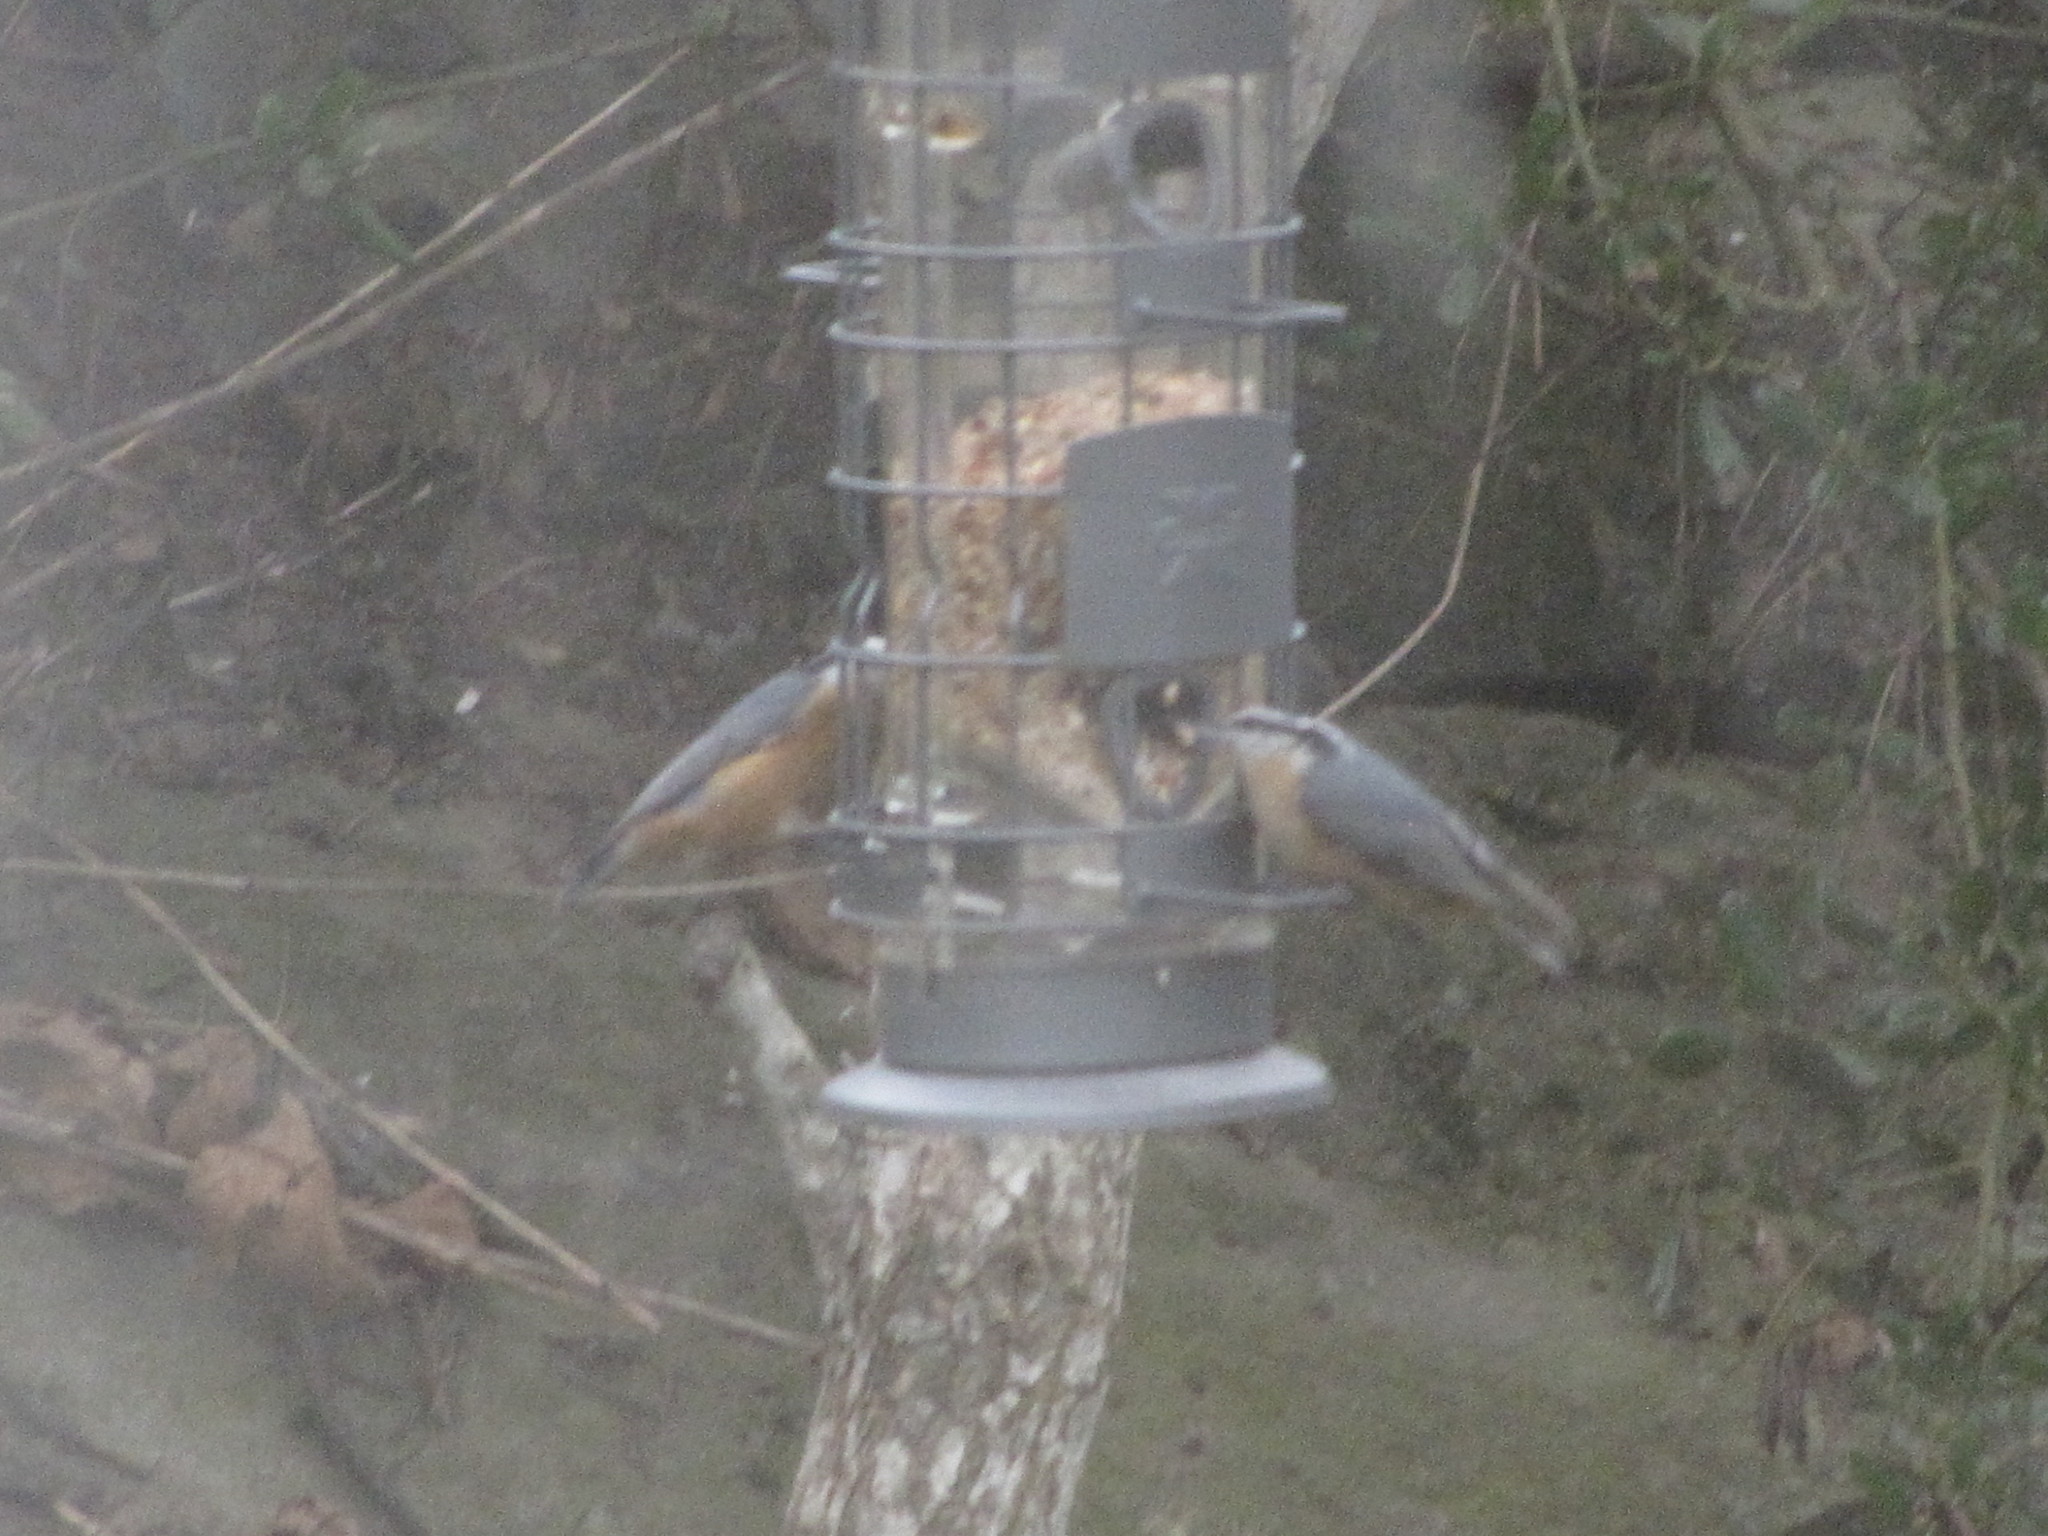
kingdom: Animalia
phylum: Chordata
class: Aves
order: Passeriformes
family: Sittidae
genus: Sitta
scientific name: Sitta canadensis
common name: Red-breasted nuthatch
